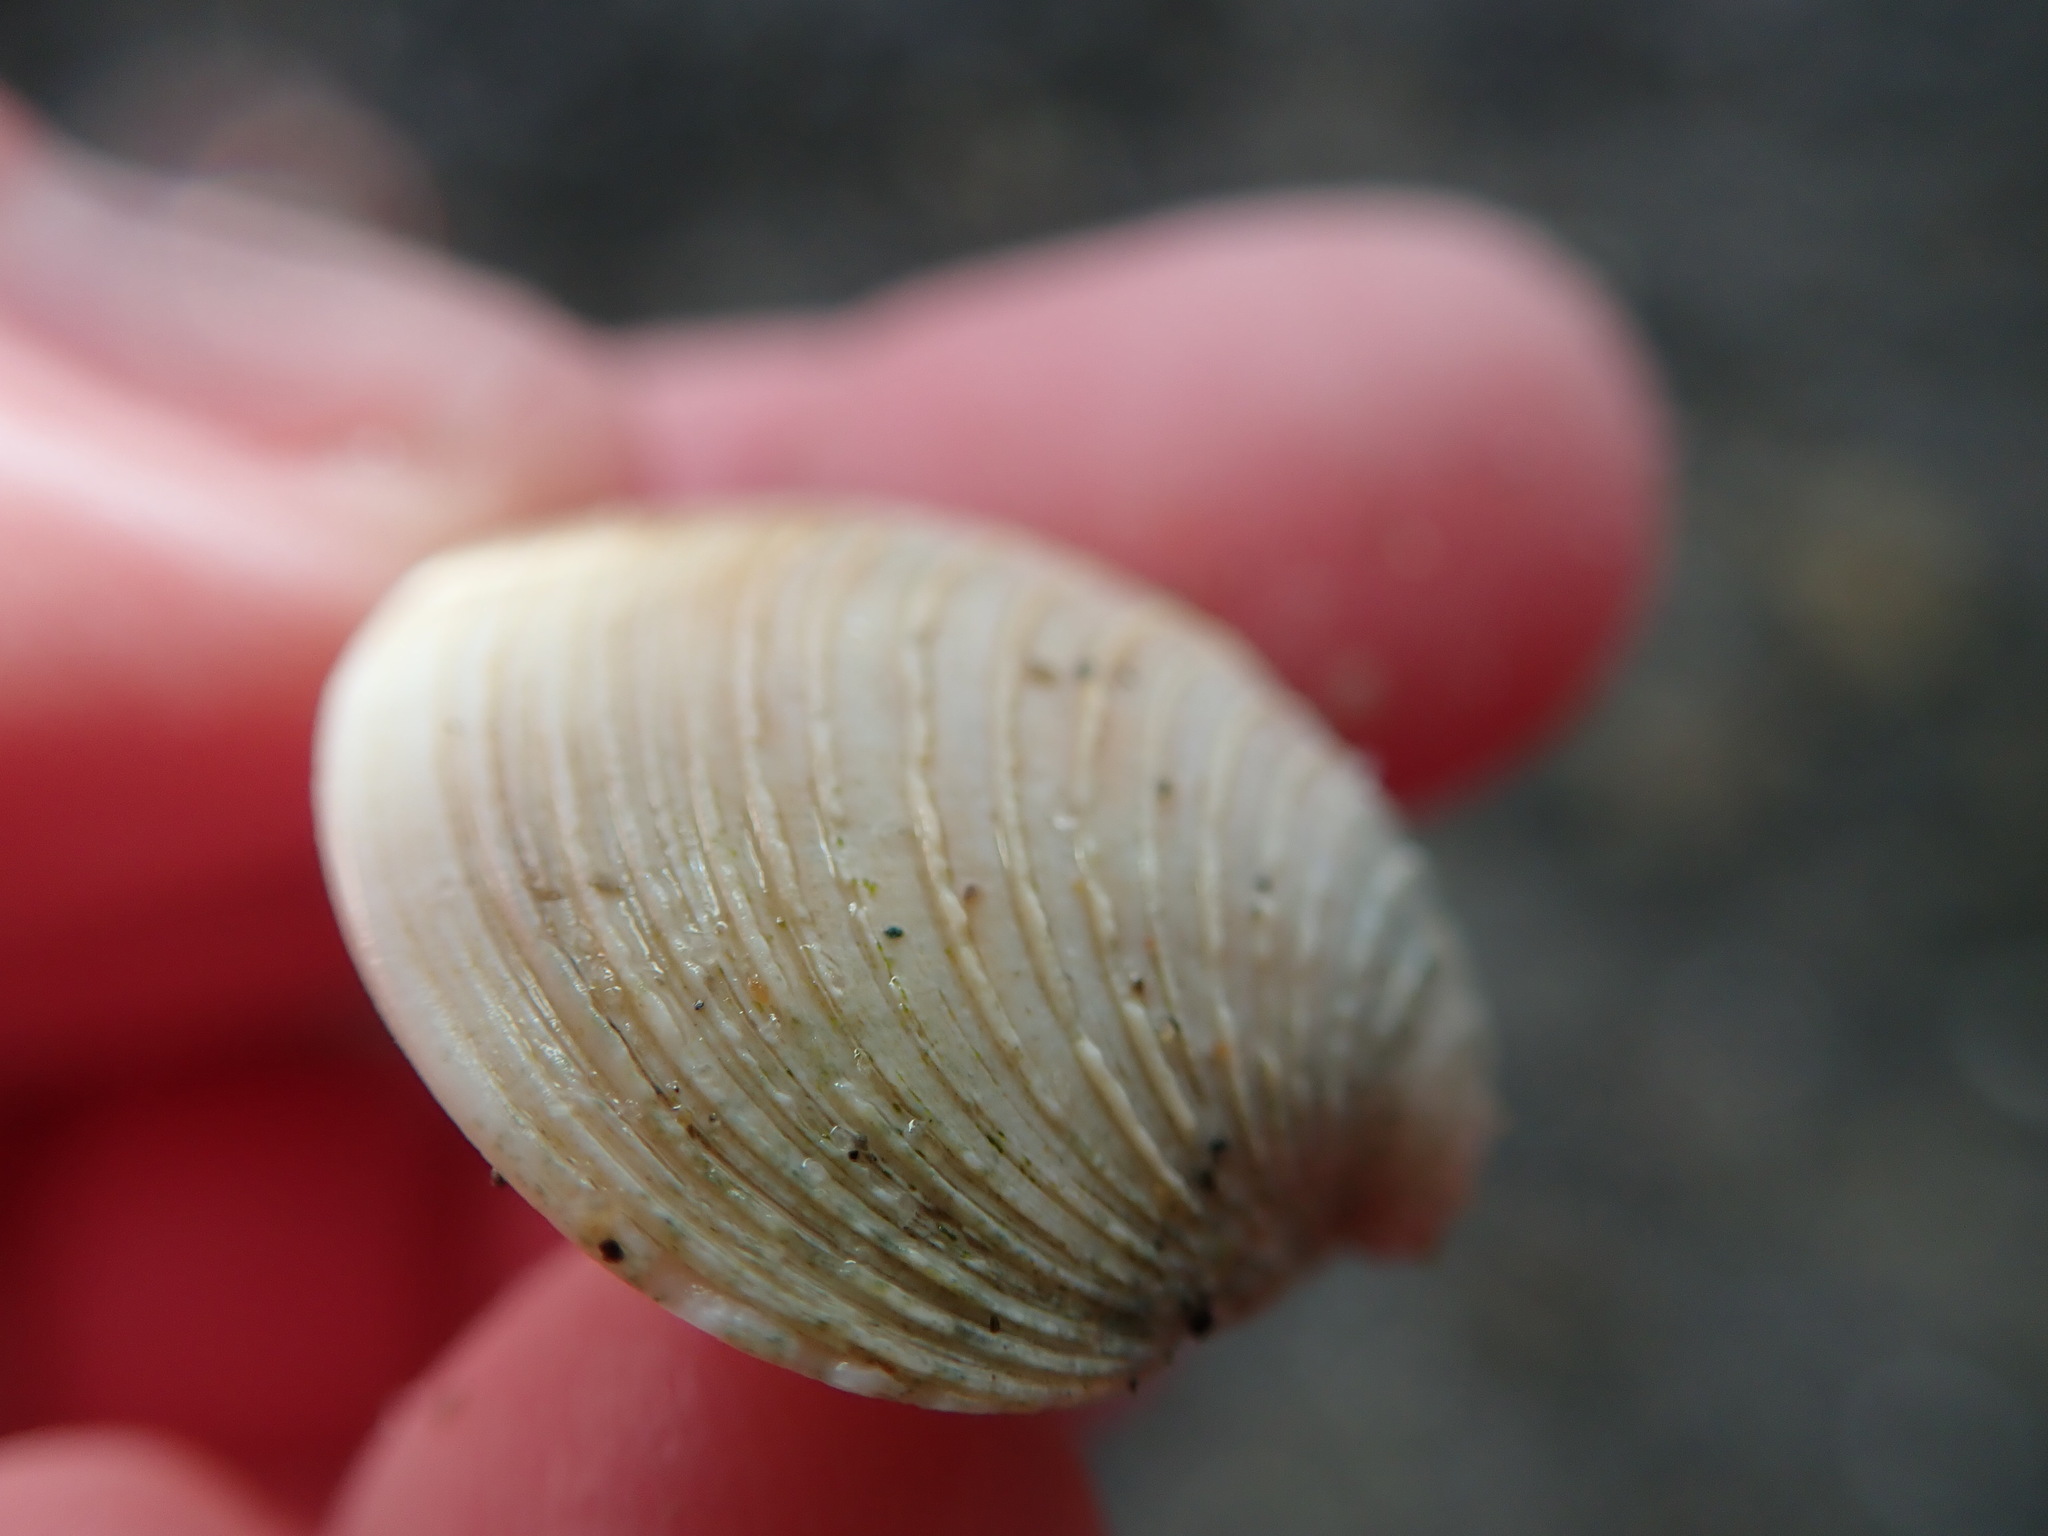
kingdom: Animalia
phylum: Mollusca
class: Bivalvia
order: Venerida
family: Veneridae
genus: Mercenaria
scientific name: Mercenaria mercenaria
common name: American hard-shelled clam
